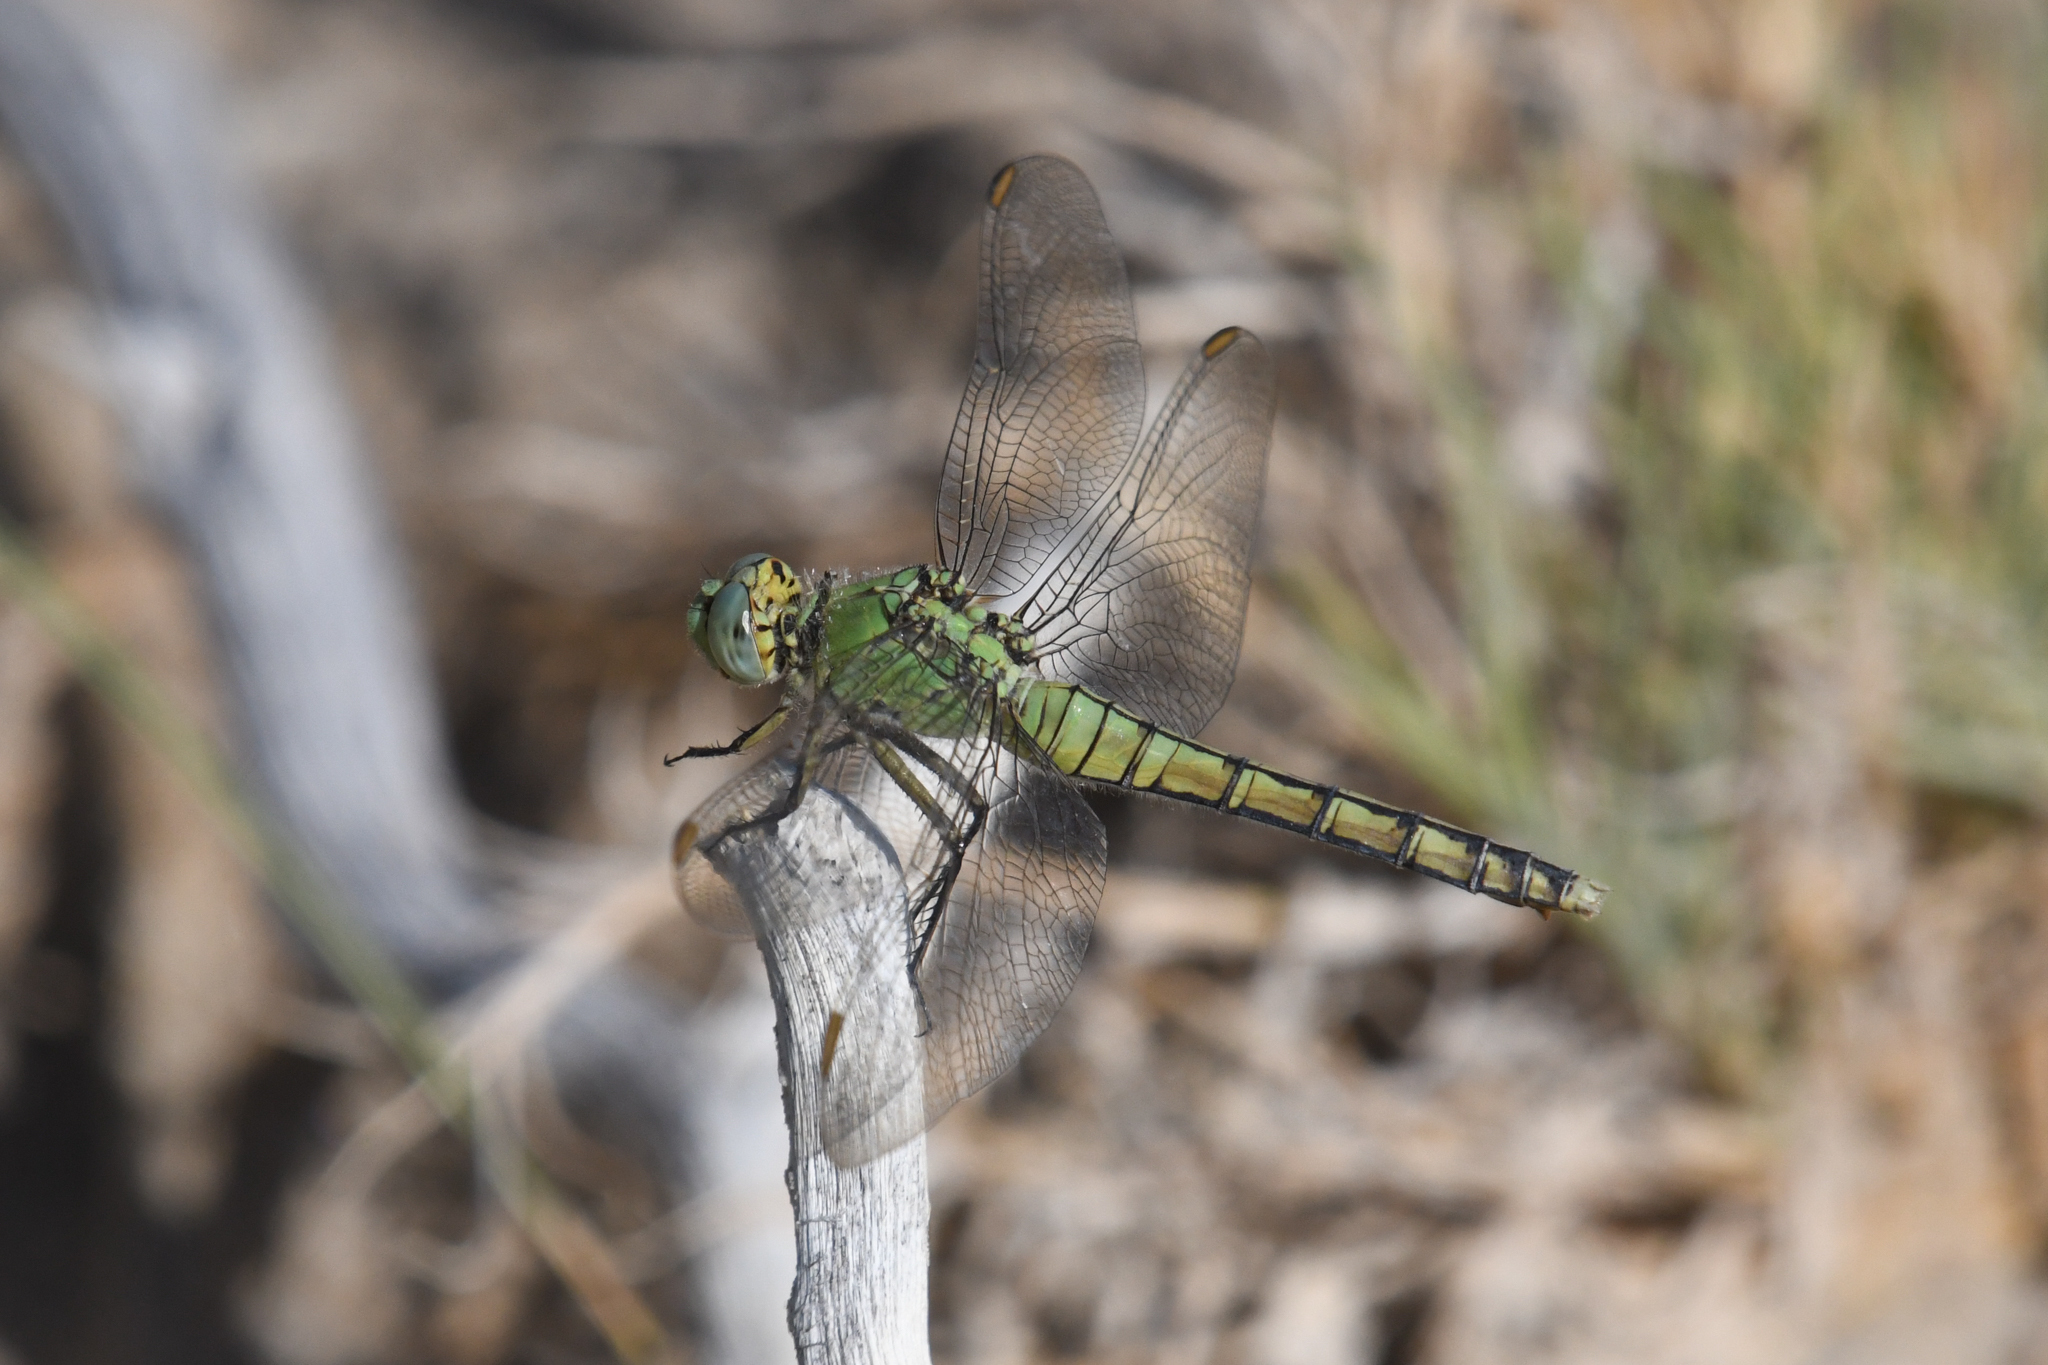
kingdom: Animalia
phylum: Arthropoda
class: Insecta
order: Odonata
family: Libellulidae
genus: Erythemis
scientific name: Erythemis collocata
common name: Western pondhawk
